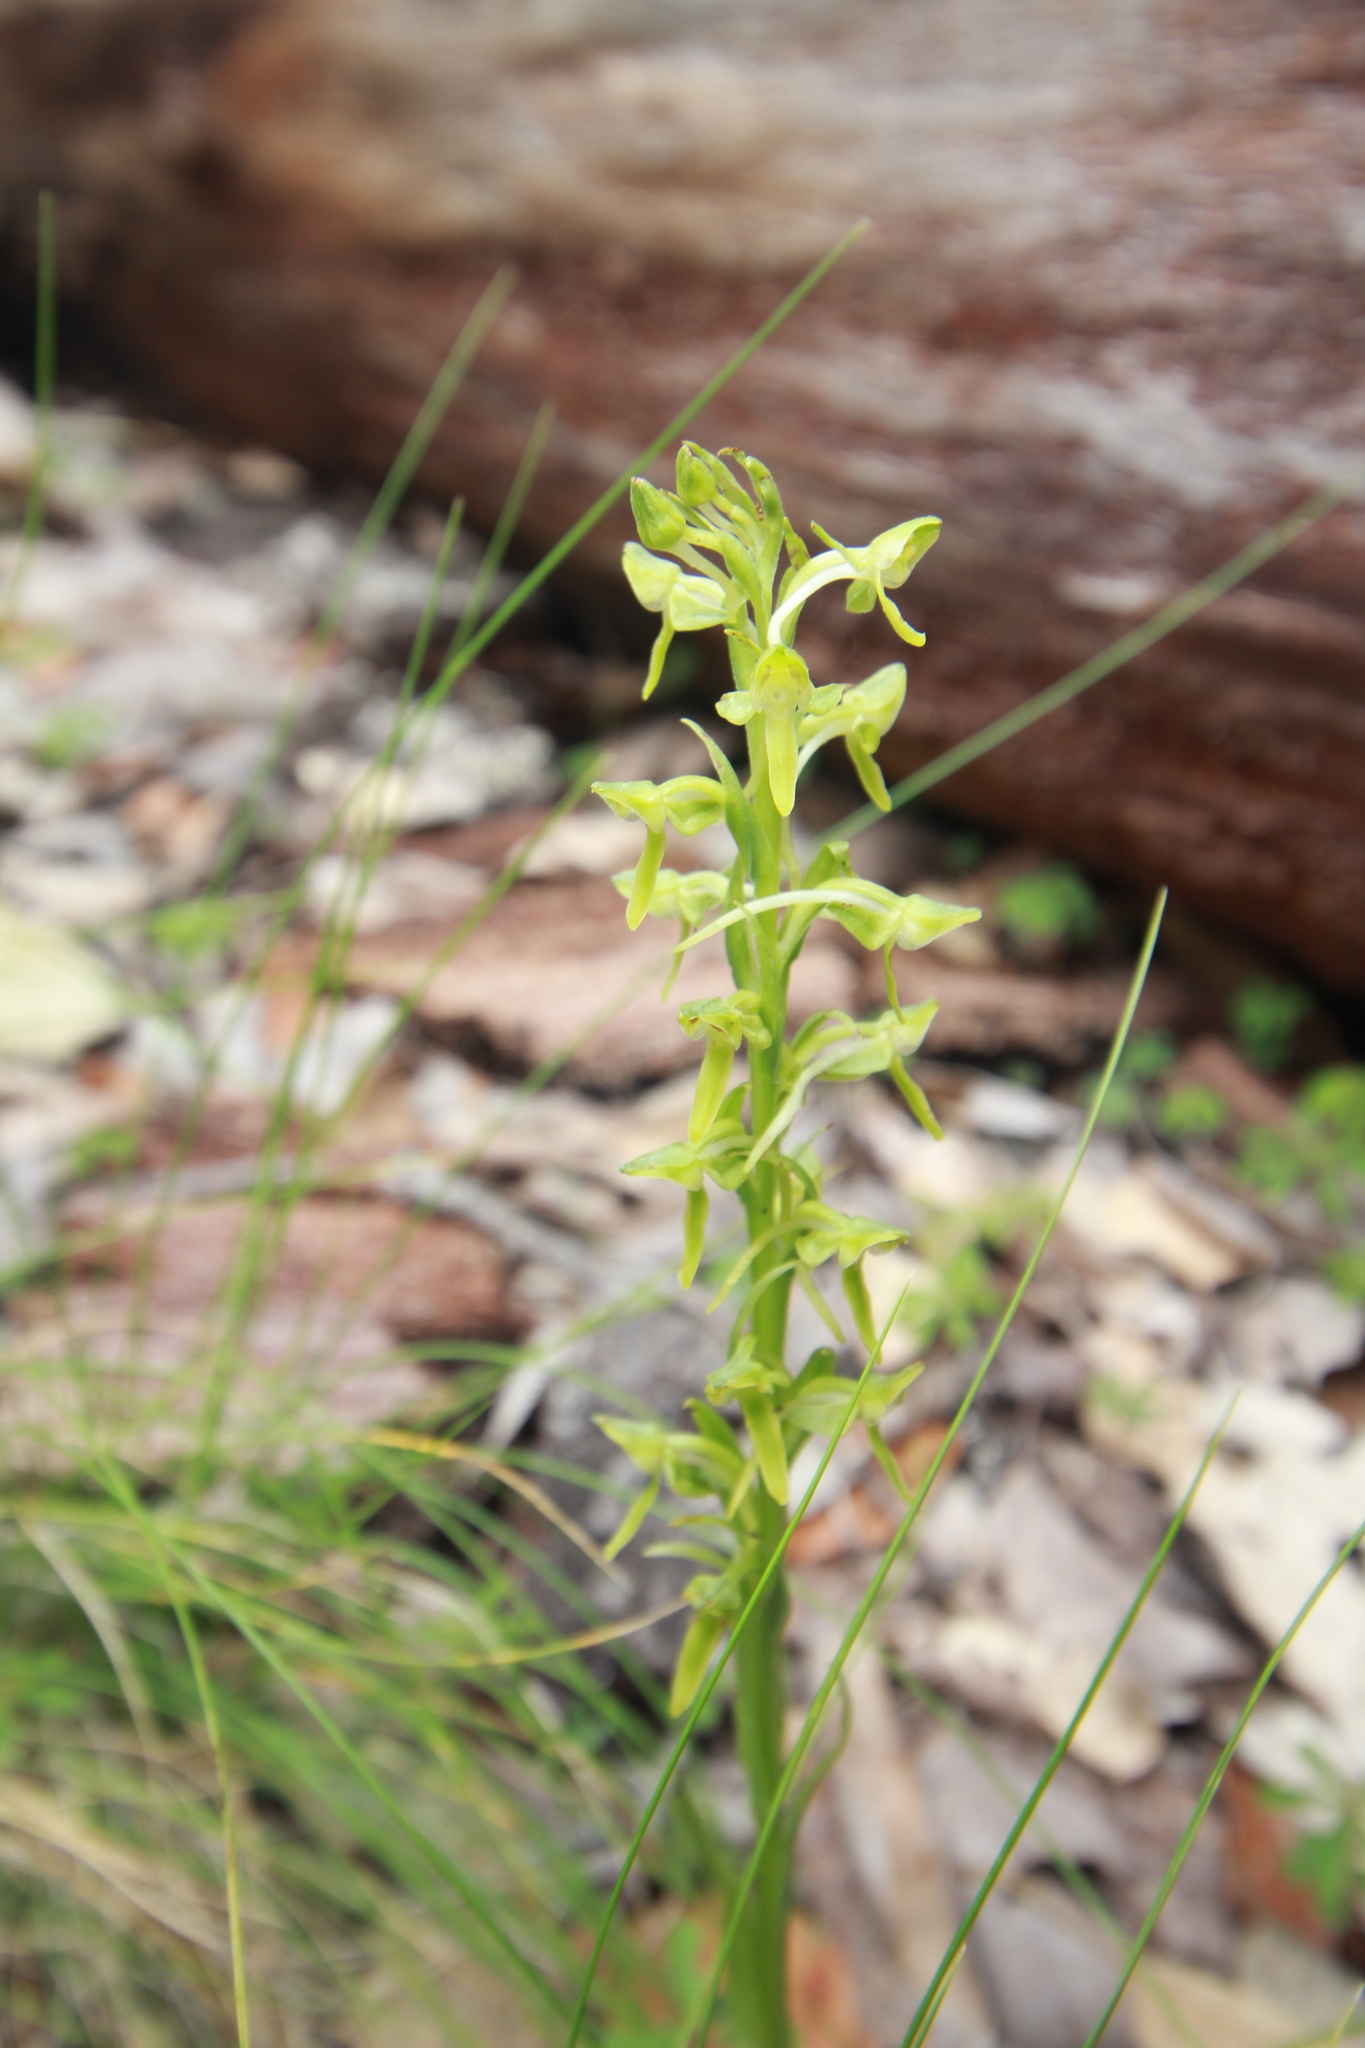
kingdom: Plantae
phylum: Tracheophyta
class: Liliopsida
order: Asparagales
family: Orchidaceae
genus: Platanthera
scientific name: Platanthera brevifolia
